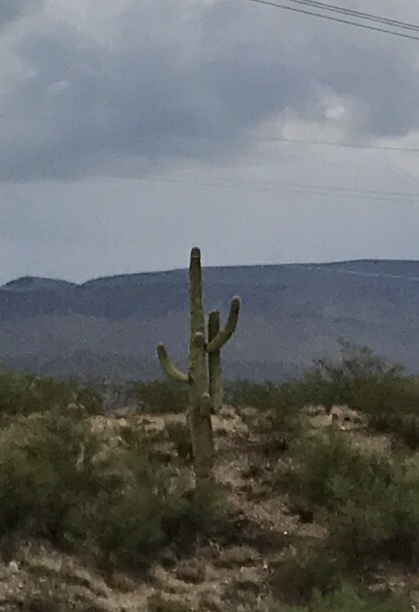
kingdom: Plantae
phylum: Tracheophyta
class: Magnoliopsida
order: Caryophyllales
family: Cactaceae
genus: Carnegiea
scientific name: Carnegiea gigantea
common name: Saguaro
